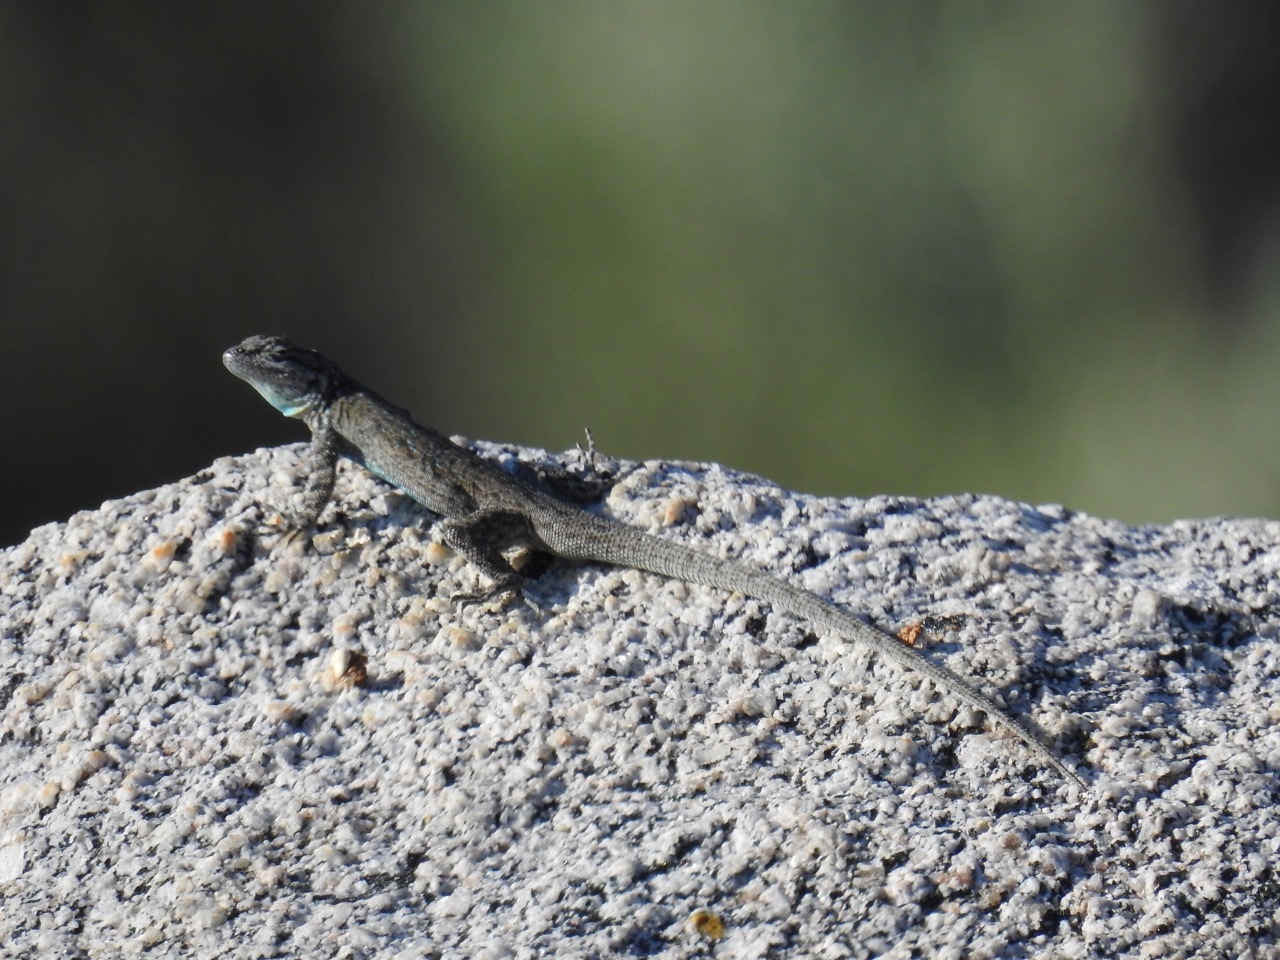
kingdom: Animalia
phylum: Chordata
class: Squamata
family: Phrynosomatidae
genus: Urosaurus
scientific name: Urosaurus nigricauda
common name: Baja california brush lizard
